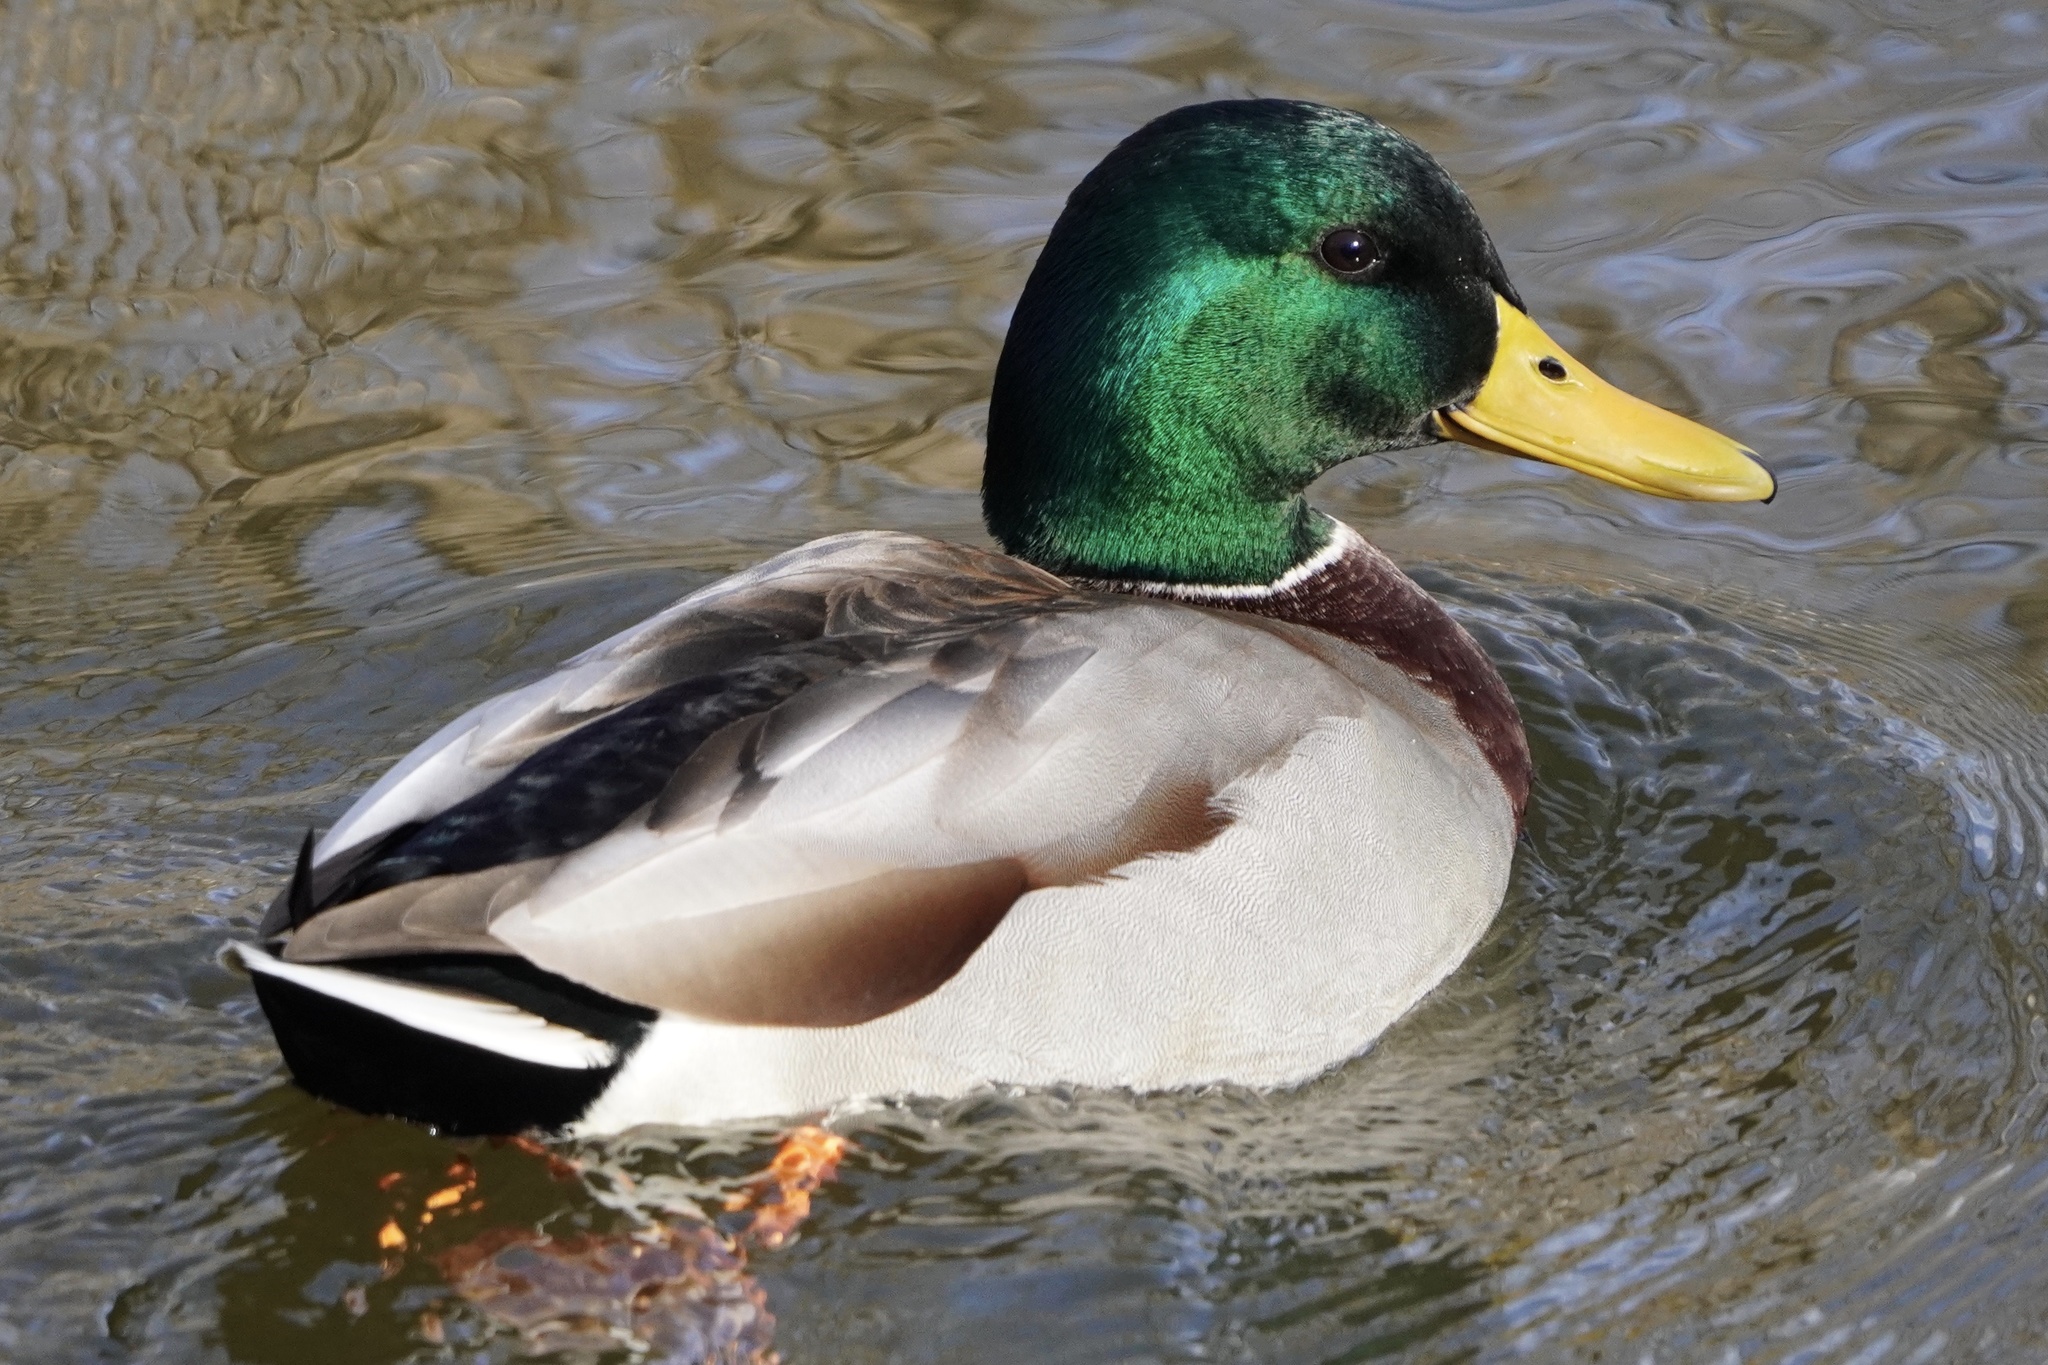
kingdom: Animalia
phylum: Chordata
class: Aves
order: Anseriformes
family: Anatidae
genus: Anas
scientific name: Anas platyrhynchos
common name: Mallard
